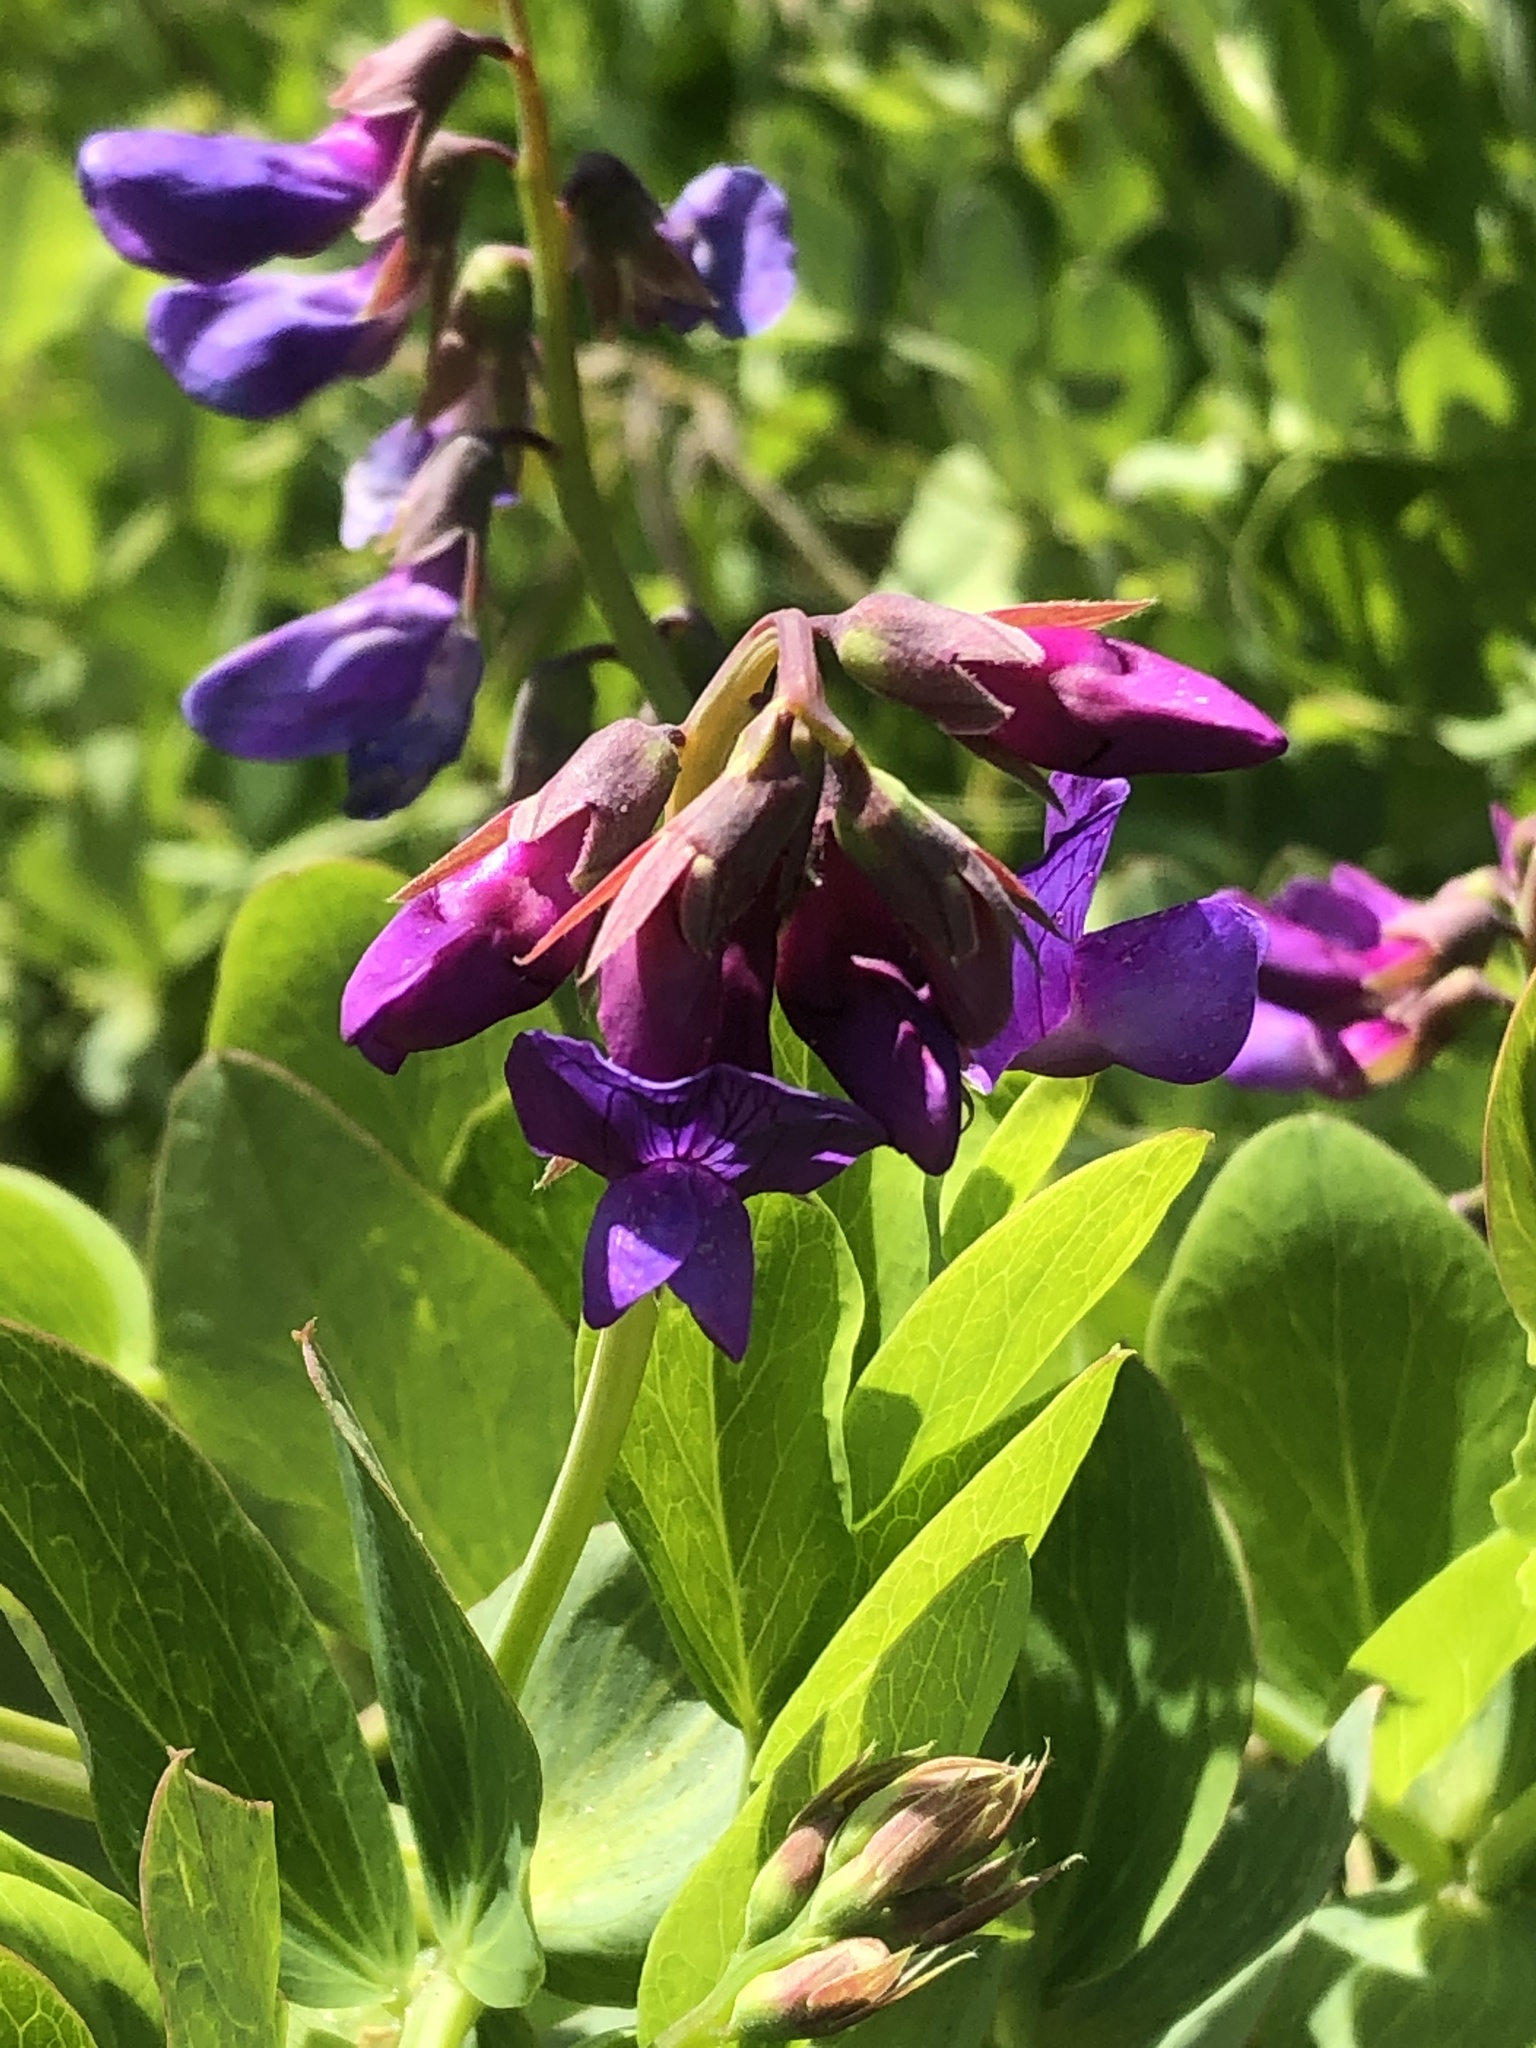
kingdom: Plantae
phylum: Tracheophyta
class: Magnoliopsida
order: Fabales
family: Fabaceae
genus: Lathyrus
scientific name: Lathyrus japonicus
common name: Sea pea
